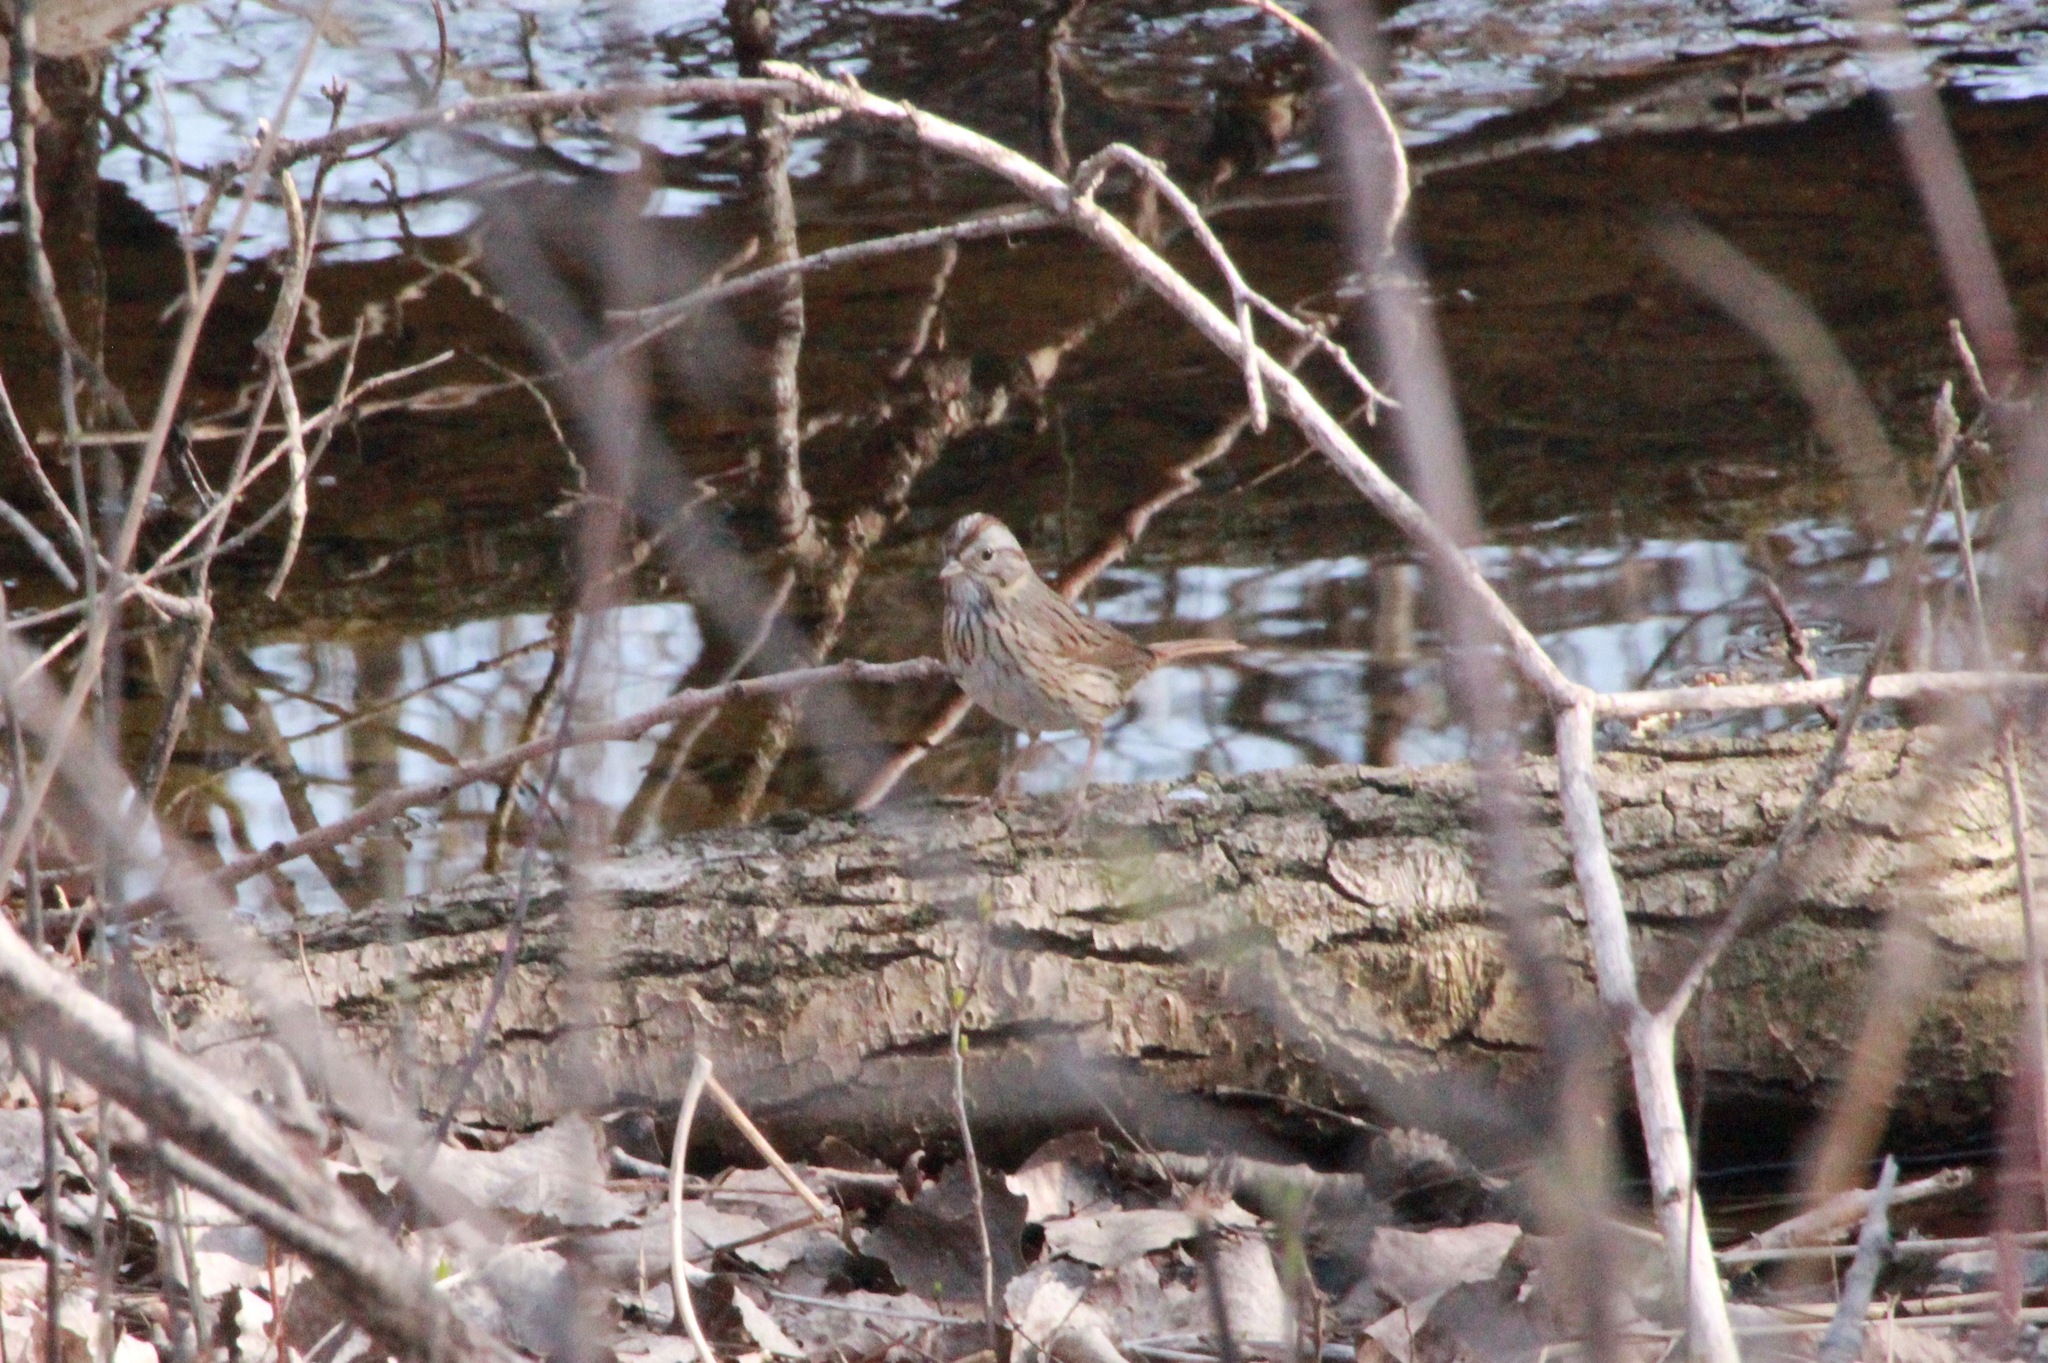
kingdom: Animalia
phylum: Chordata
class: Aves
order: Passeriformes
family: Passerellidae
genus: Melospiza
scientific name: Melospiza lincolnii
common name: Lincoln's sparrow
